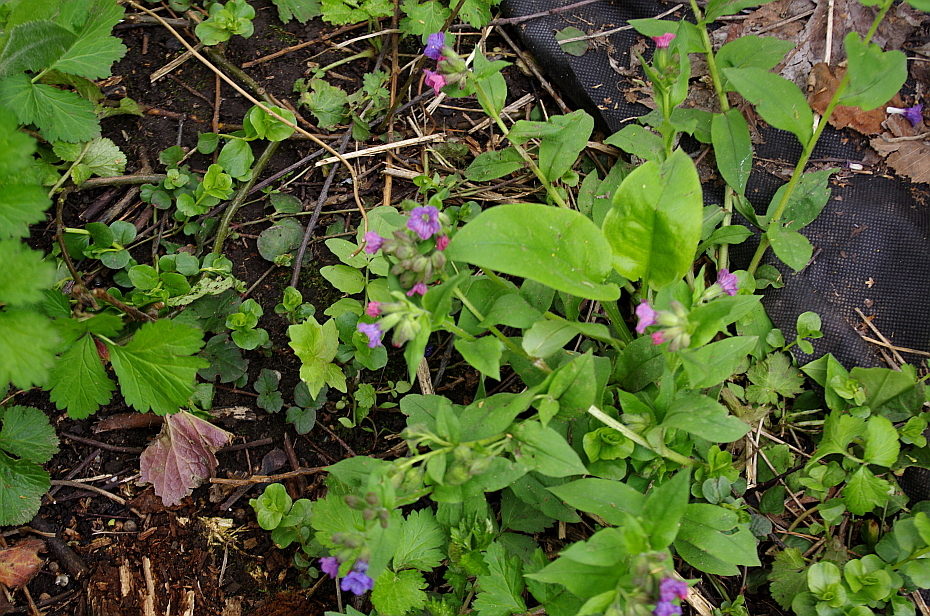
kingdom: Plantae
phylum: Tracheophyta
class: Magnoliopsida
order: Boraginales
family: Boraginaceae
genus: Pulmonaria
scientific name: Pulmonaria obscura
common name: Suffolk lungwort
